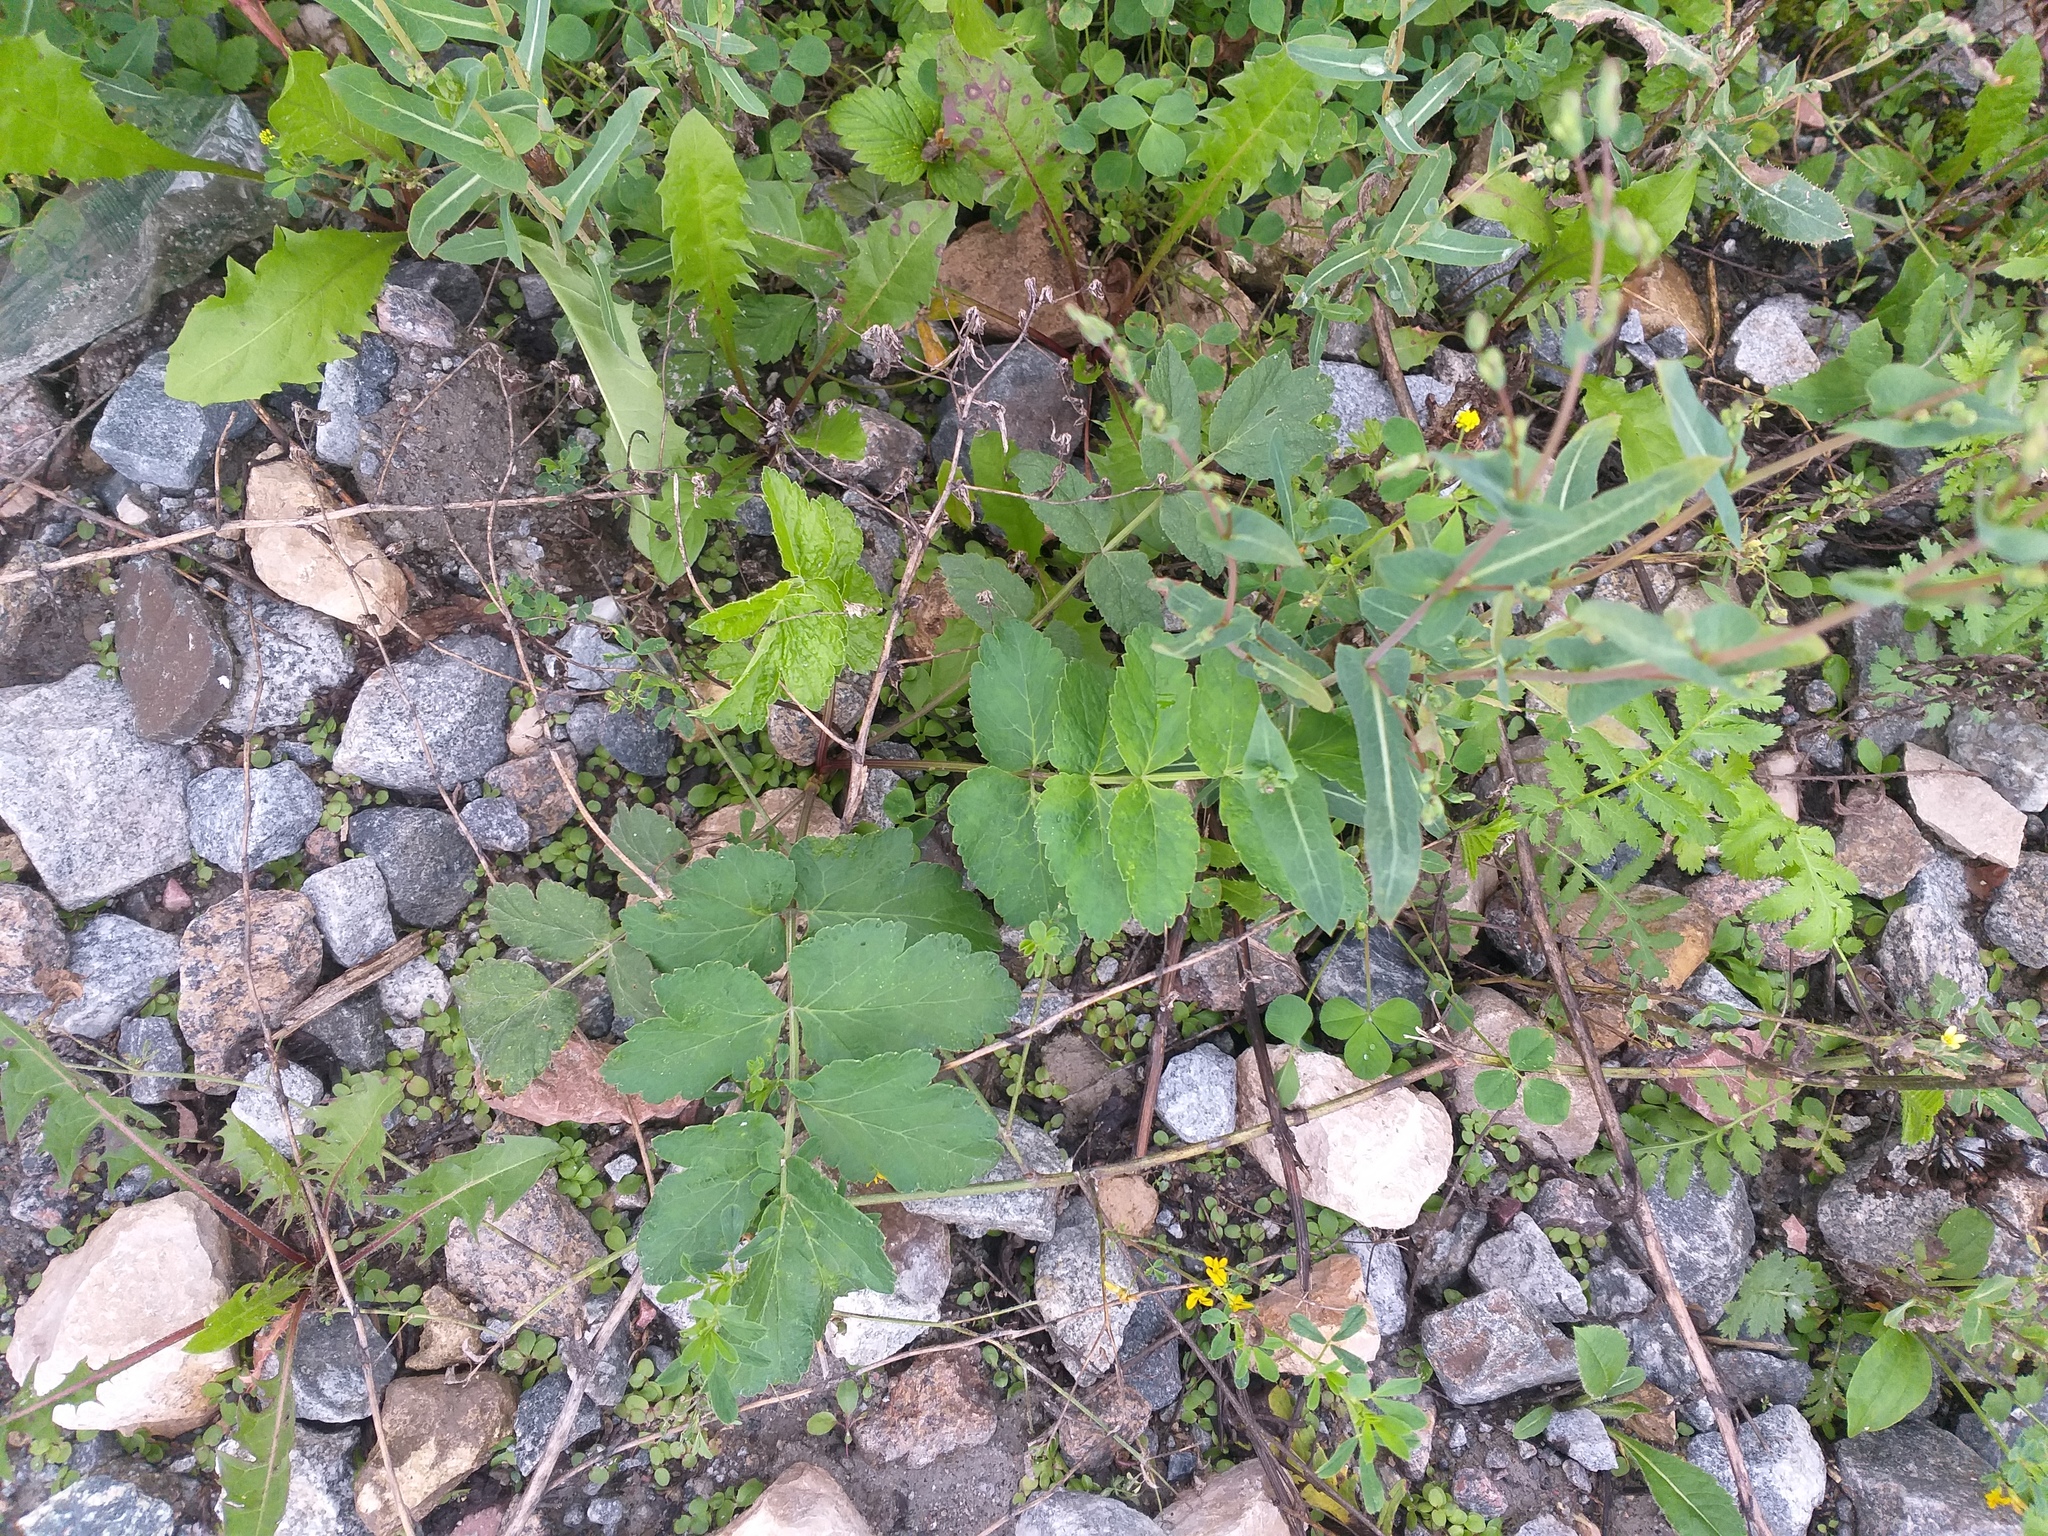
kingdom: Plantae
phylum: Tracheophyta
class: Magnoliopsida
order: Apiales
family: Apiaceae
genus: Pastinaca
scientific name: Pastinaca sativa
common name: Wild parsnip
